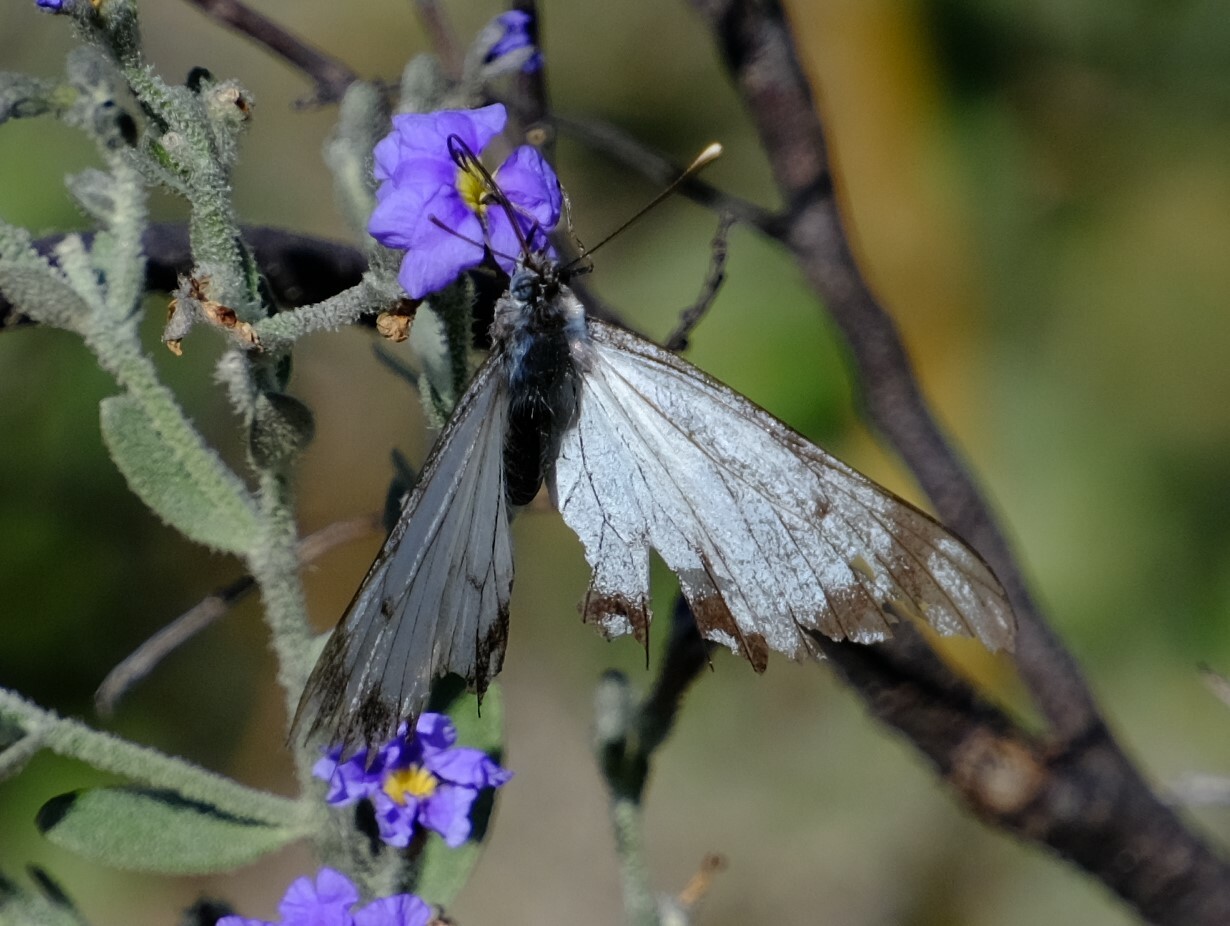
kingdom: Animalia
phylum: Arthropoda
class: Insecta
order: Lepidoptera
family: Pieridae
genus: Belenois
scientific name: Belenois java
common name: Caper white
